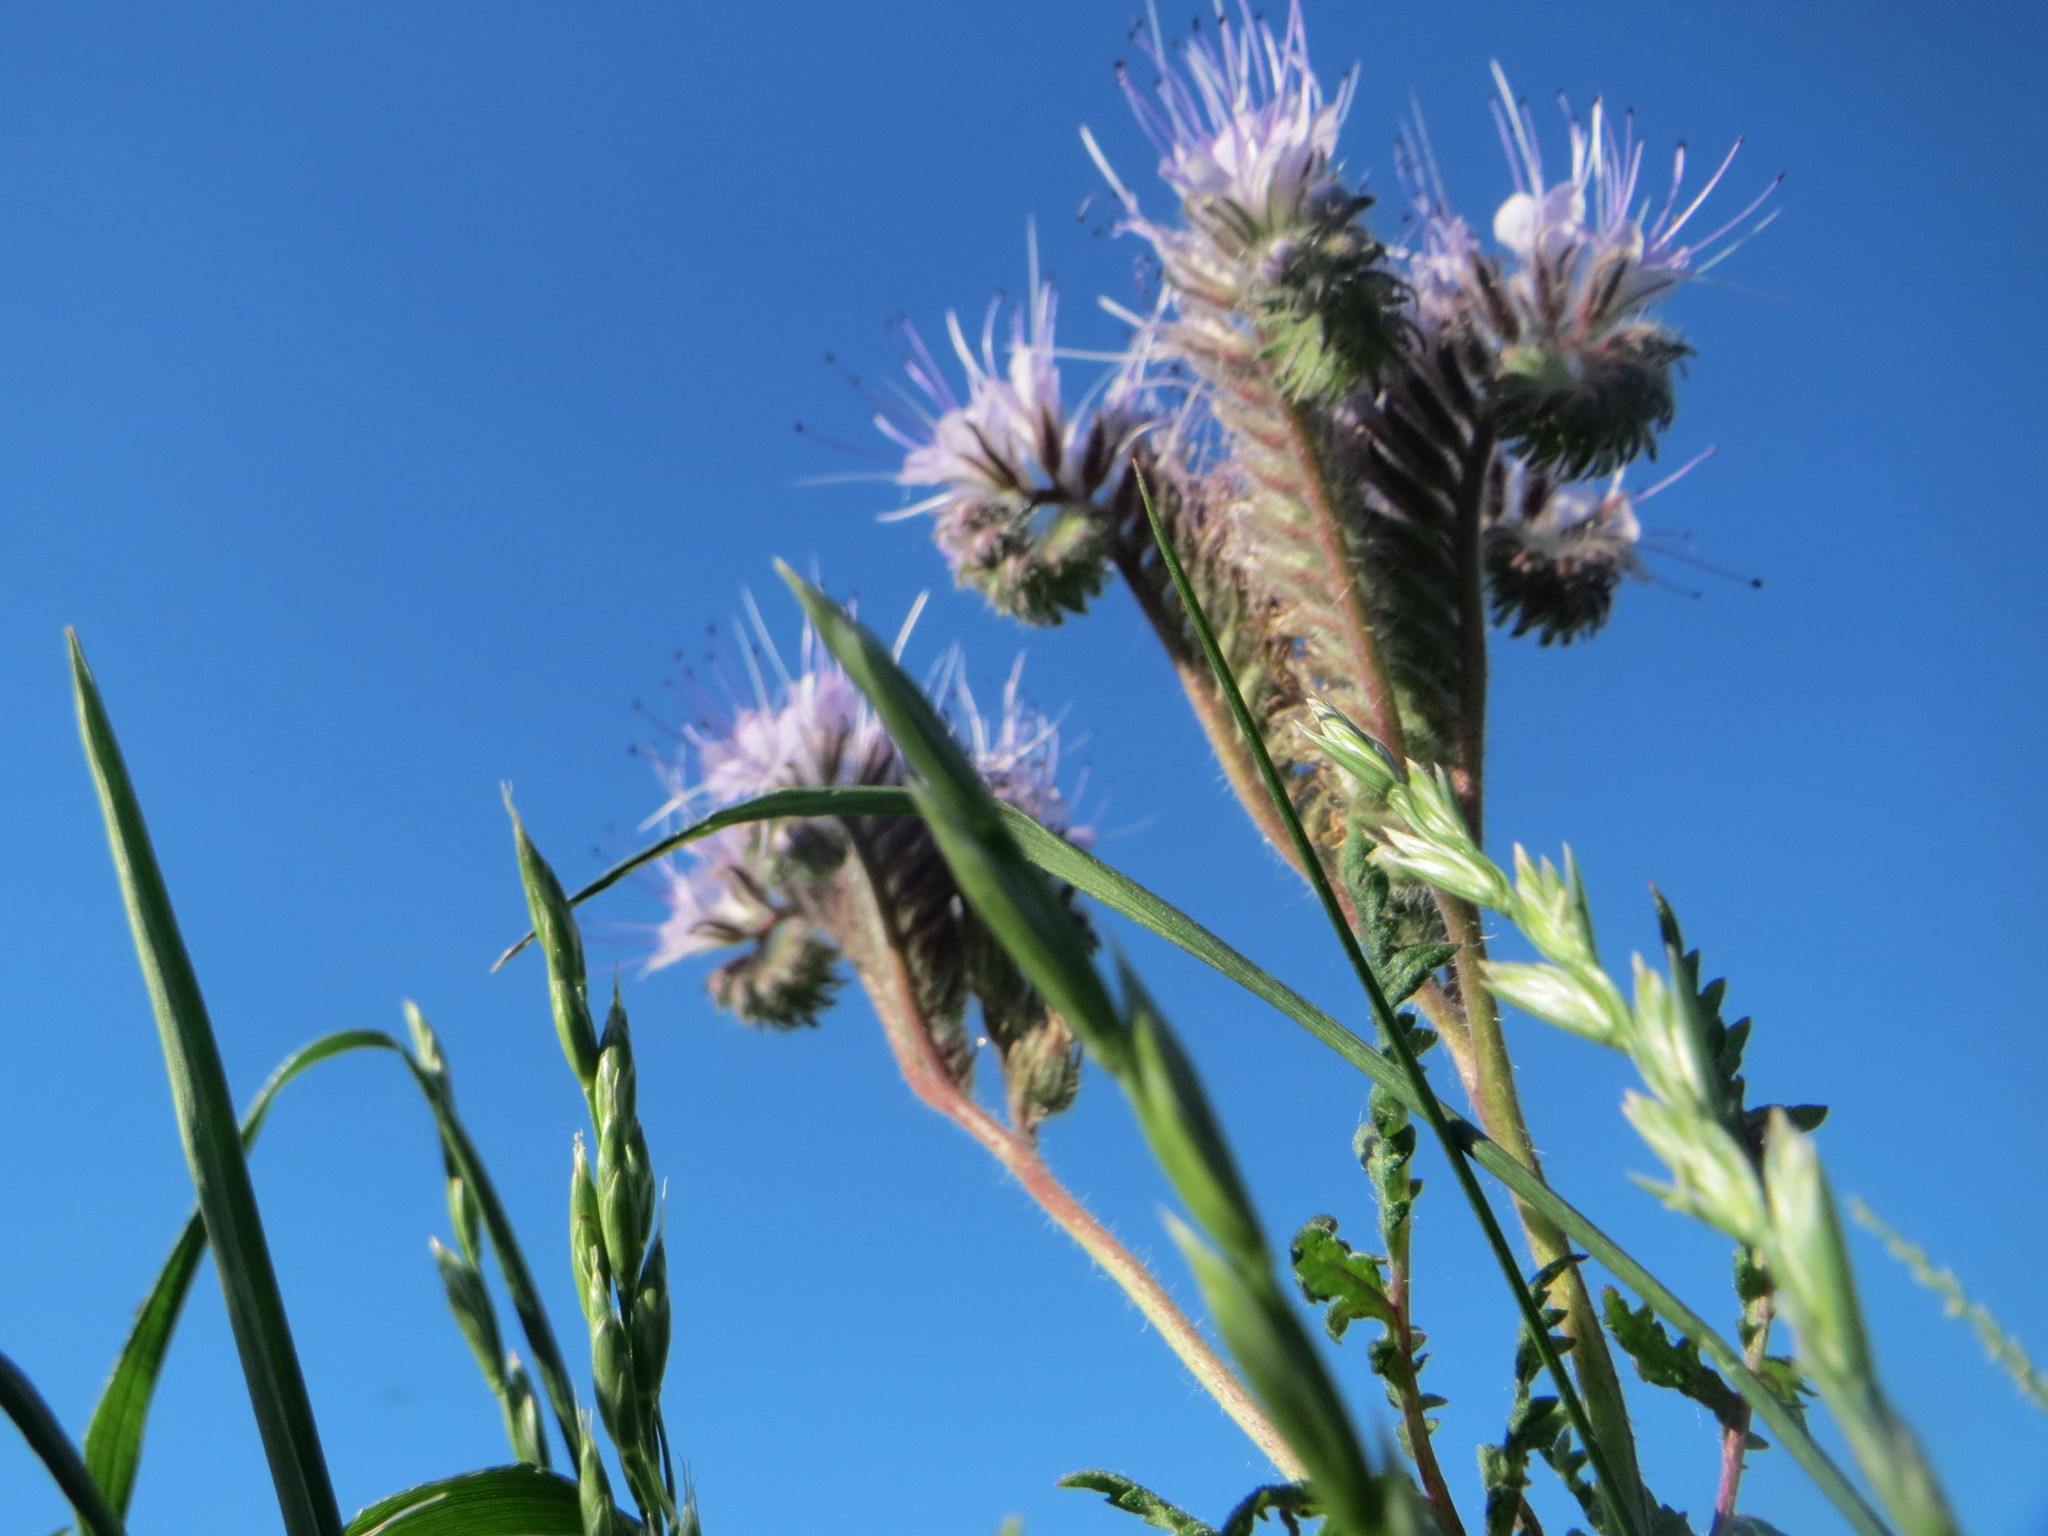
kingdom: Plantae
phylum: Tracheophyta
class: Magnoliopsida
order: Boraginales
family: Hydrophyllaceae
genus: Phacelia
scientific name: Phacelia tanacetifolia
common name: Phacelia
